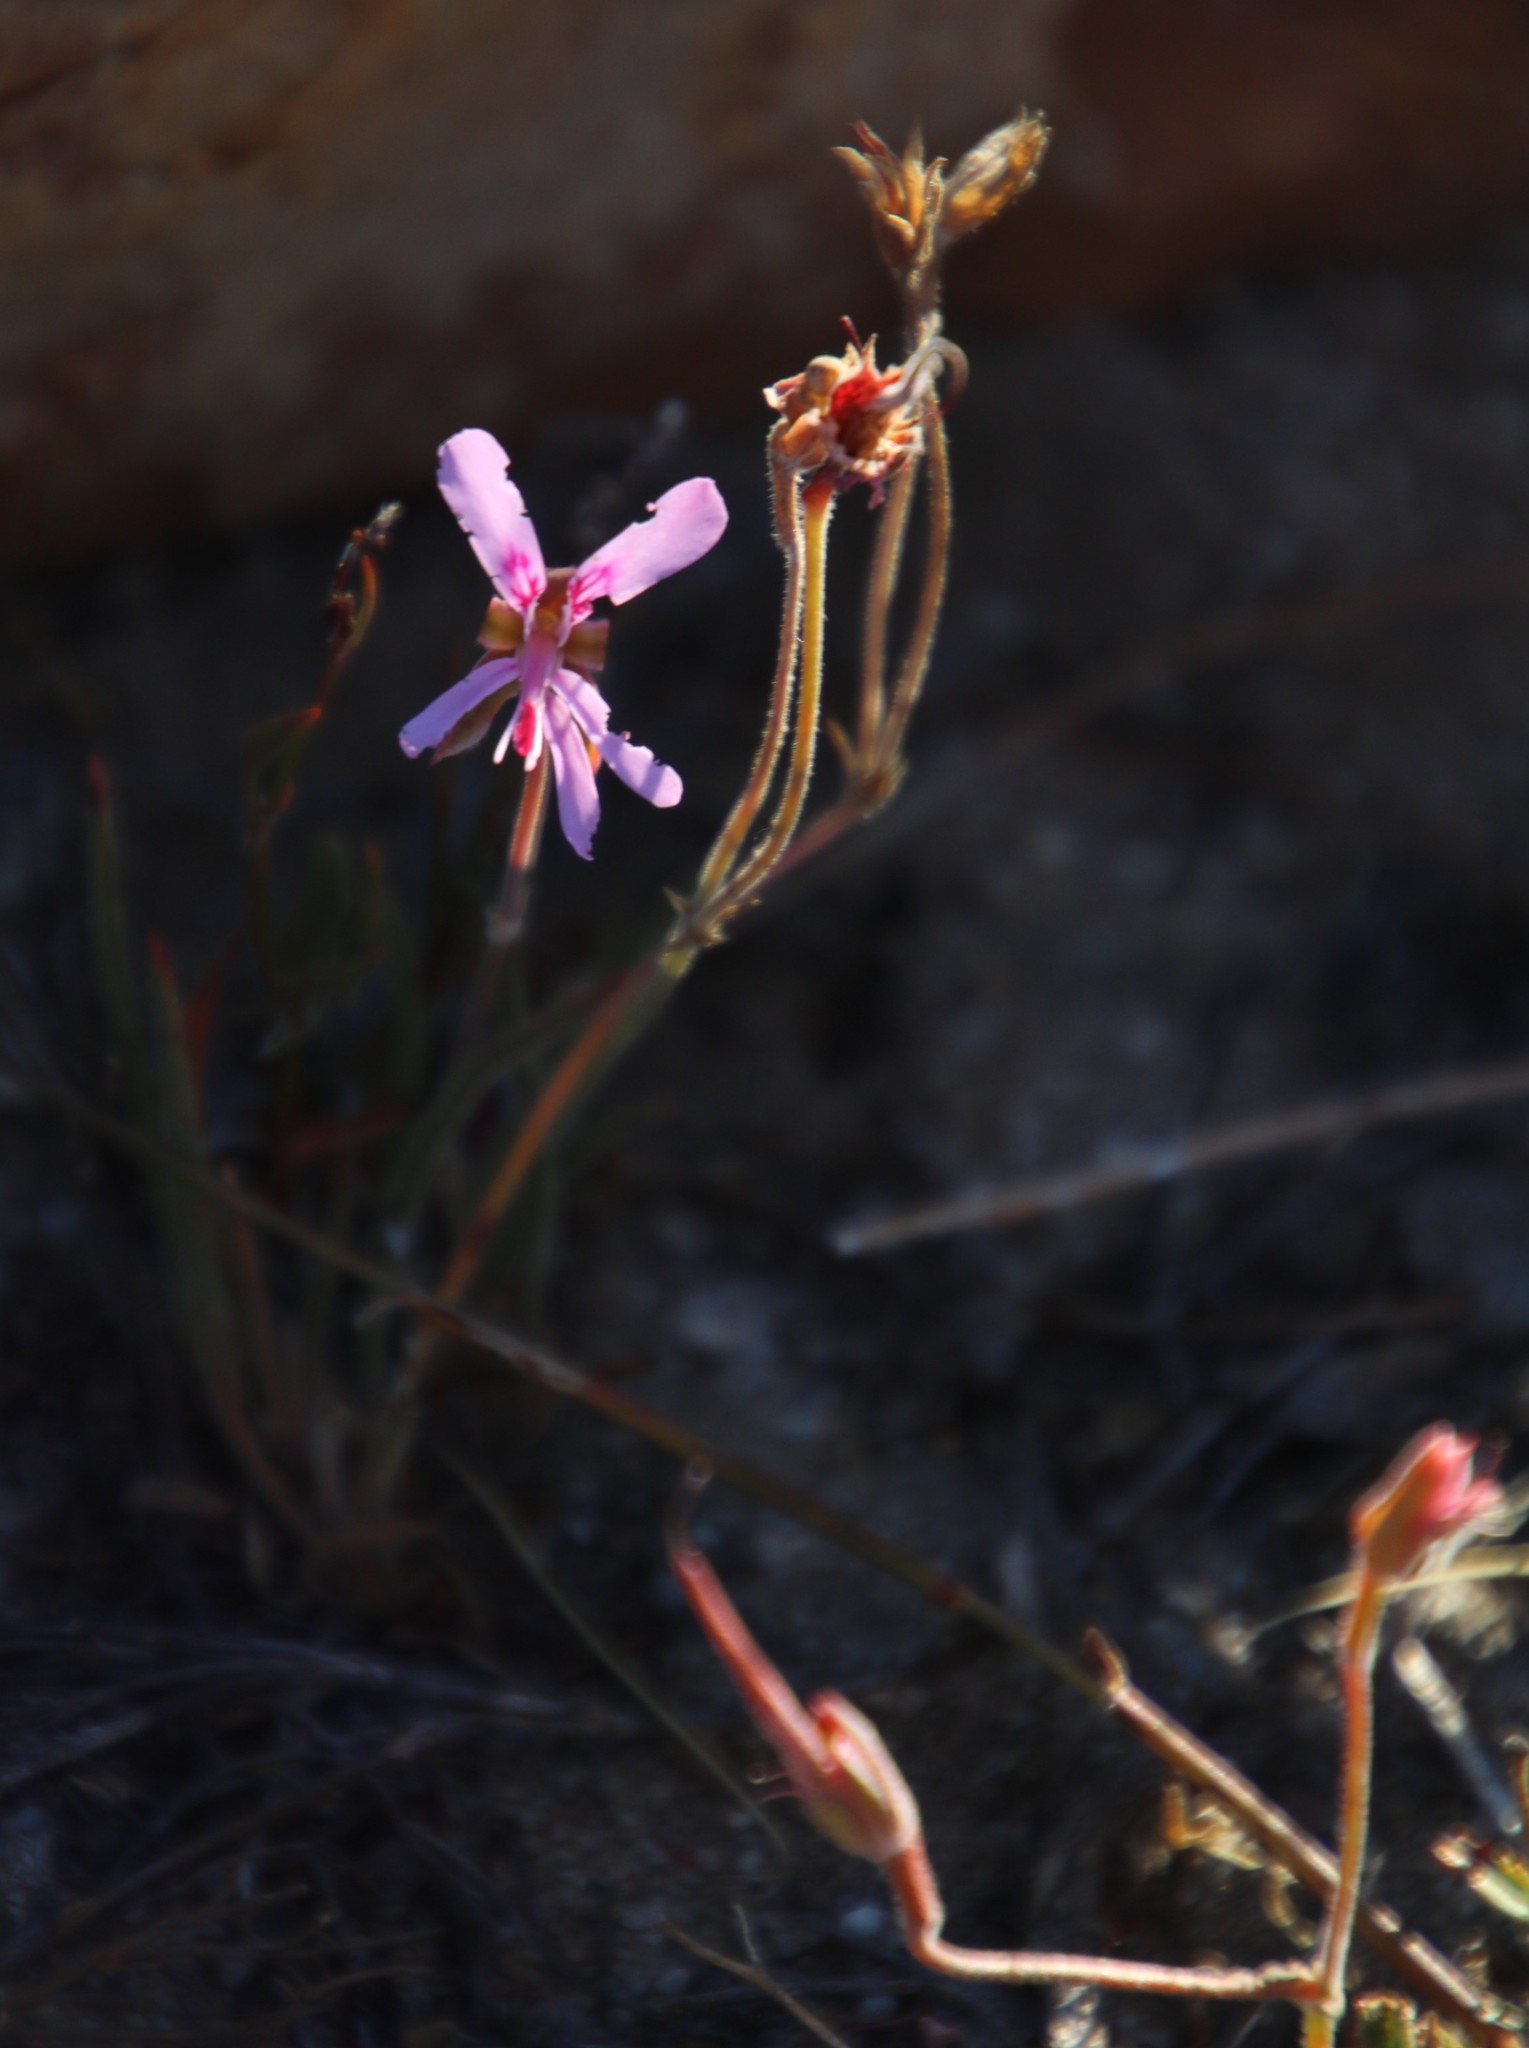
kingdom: Plantae
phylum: Tracheophyta
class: Magnoliopsida
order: Geraniales
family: Geraniaceae
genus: Pelargonium
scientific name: Pelargonium coronopifolium
